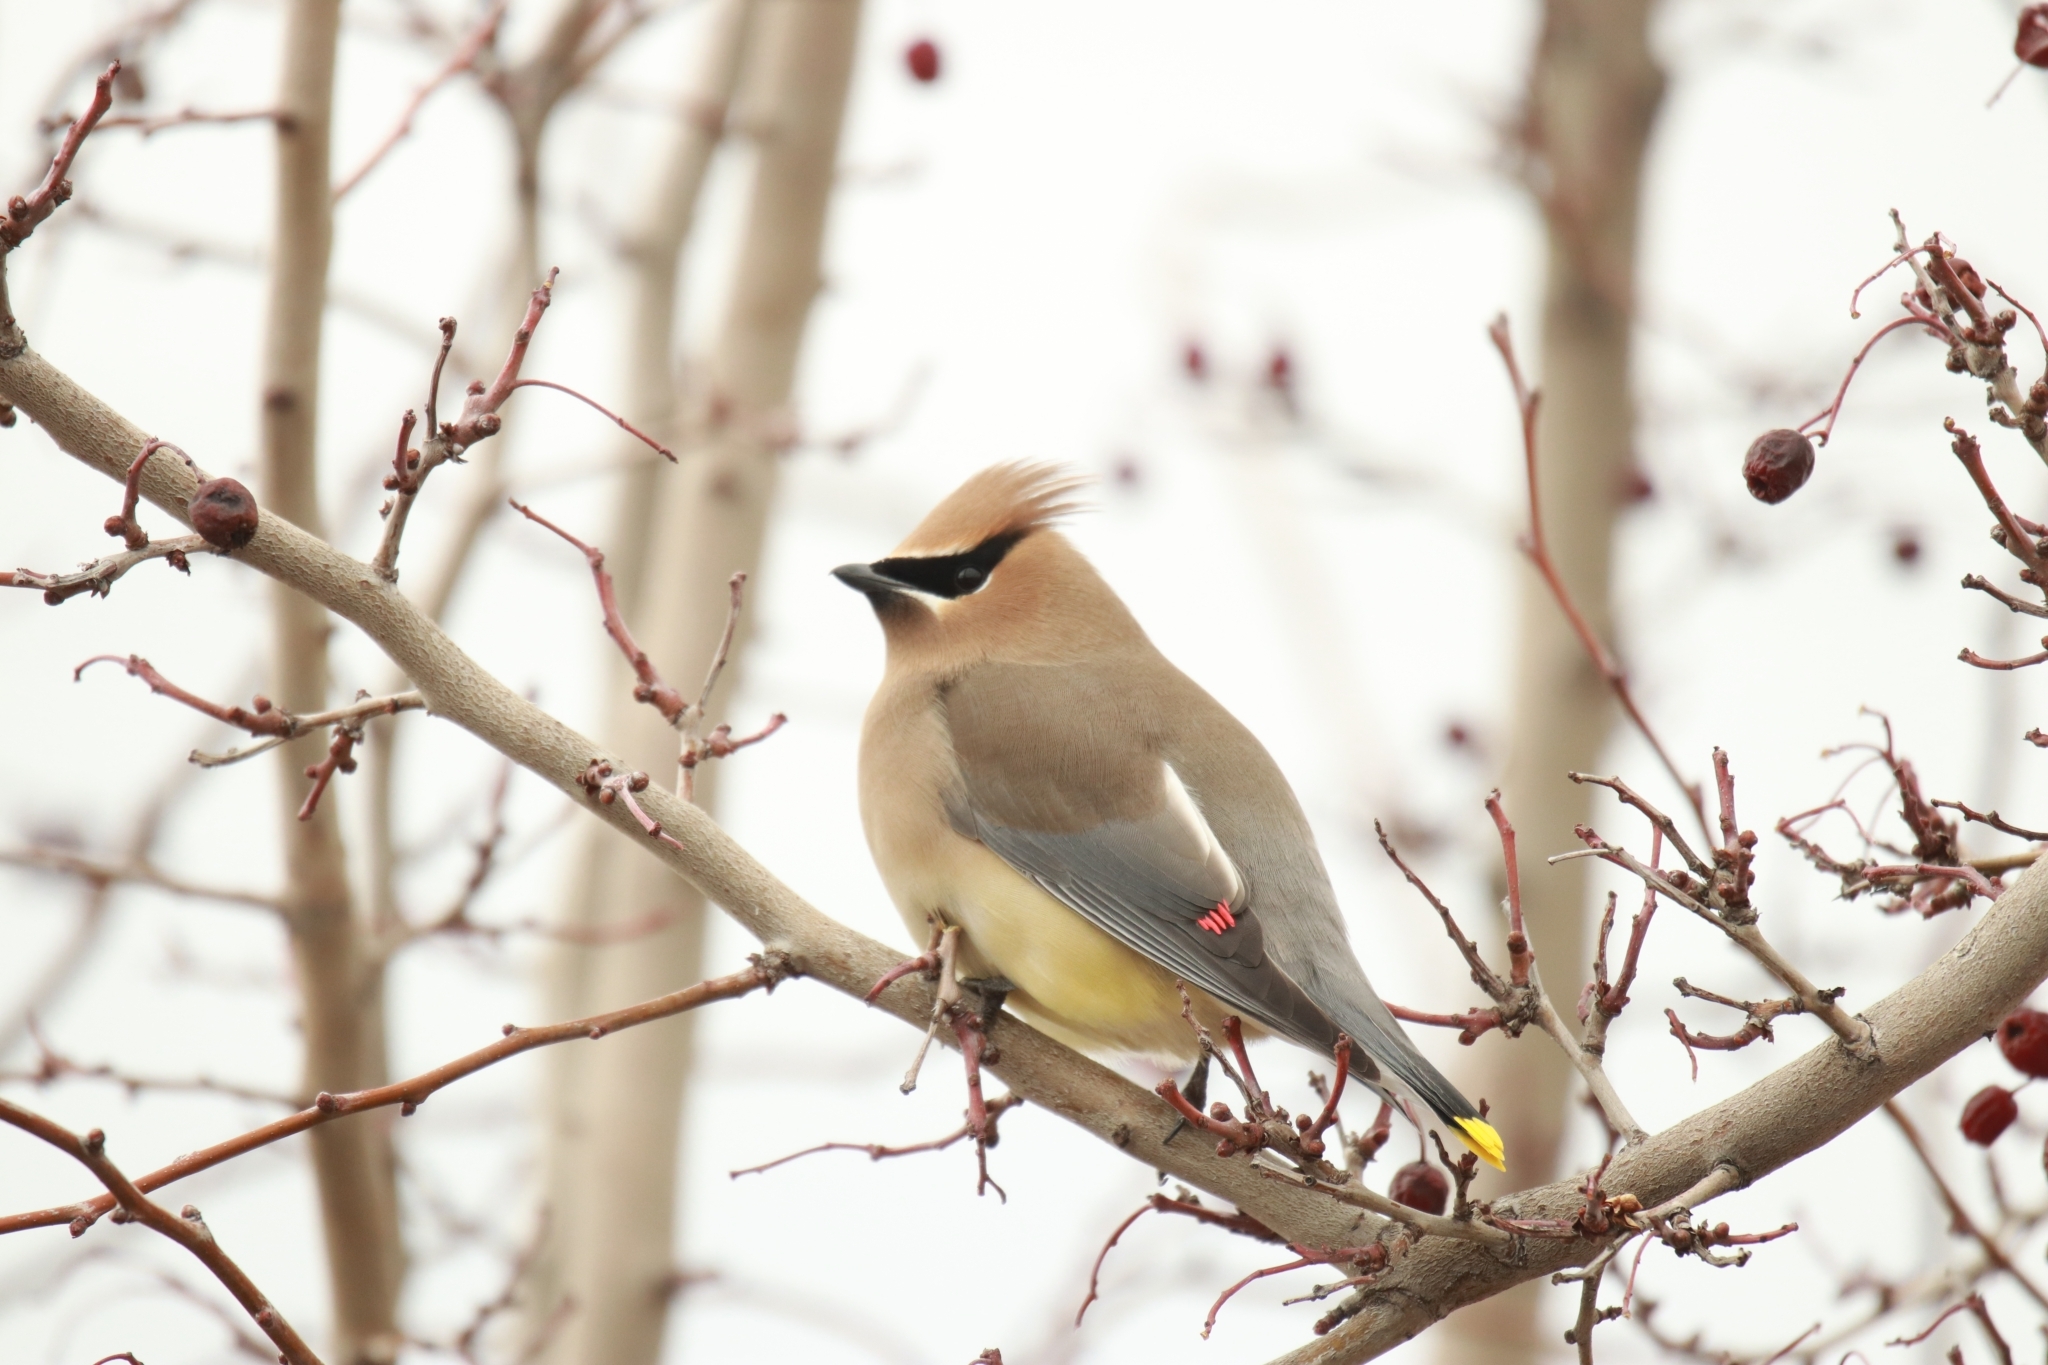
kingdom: Animalia
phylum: Chordata
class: Aves
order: Passeriformes
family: Bombycillidae
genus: Bombycilla
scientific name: Bombycilla cedrorum
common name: Cedar waxwing
